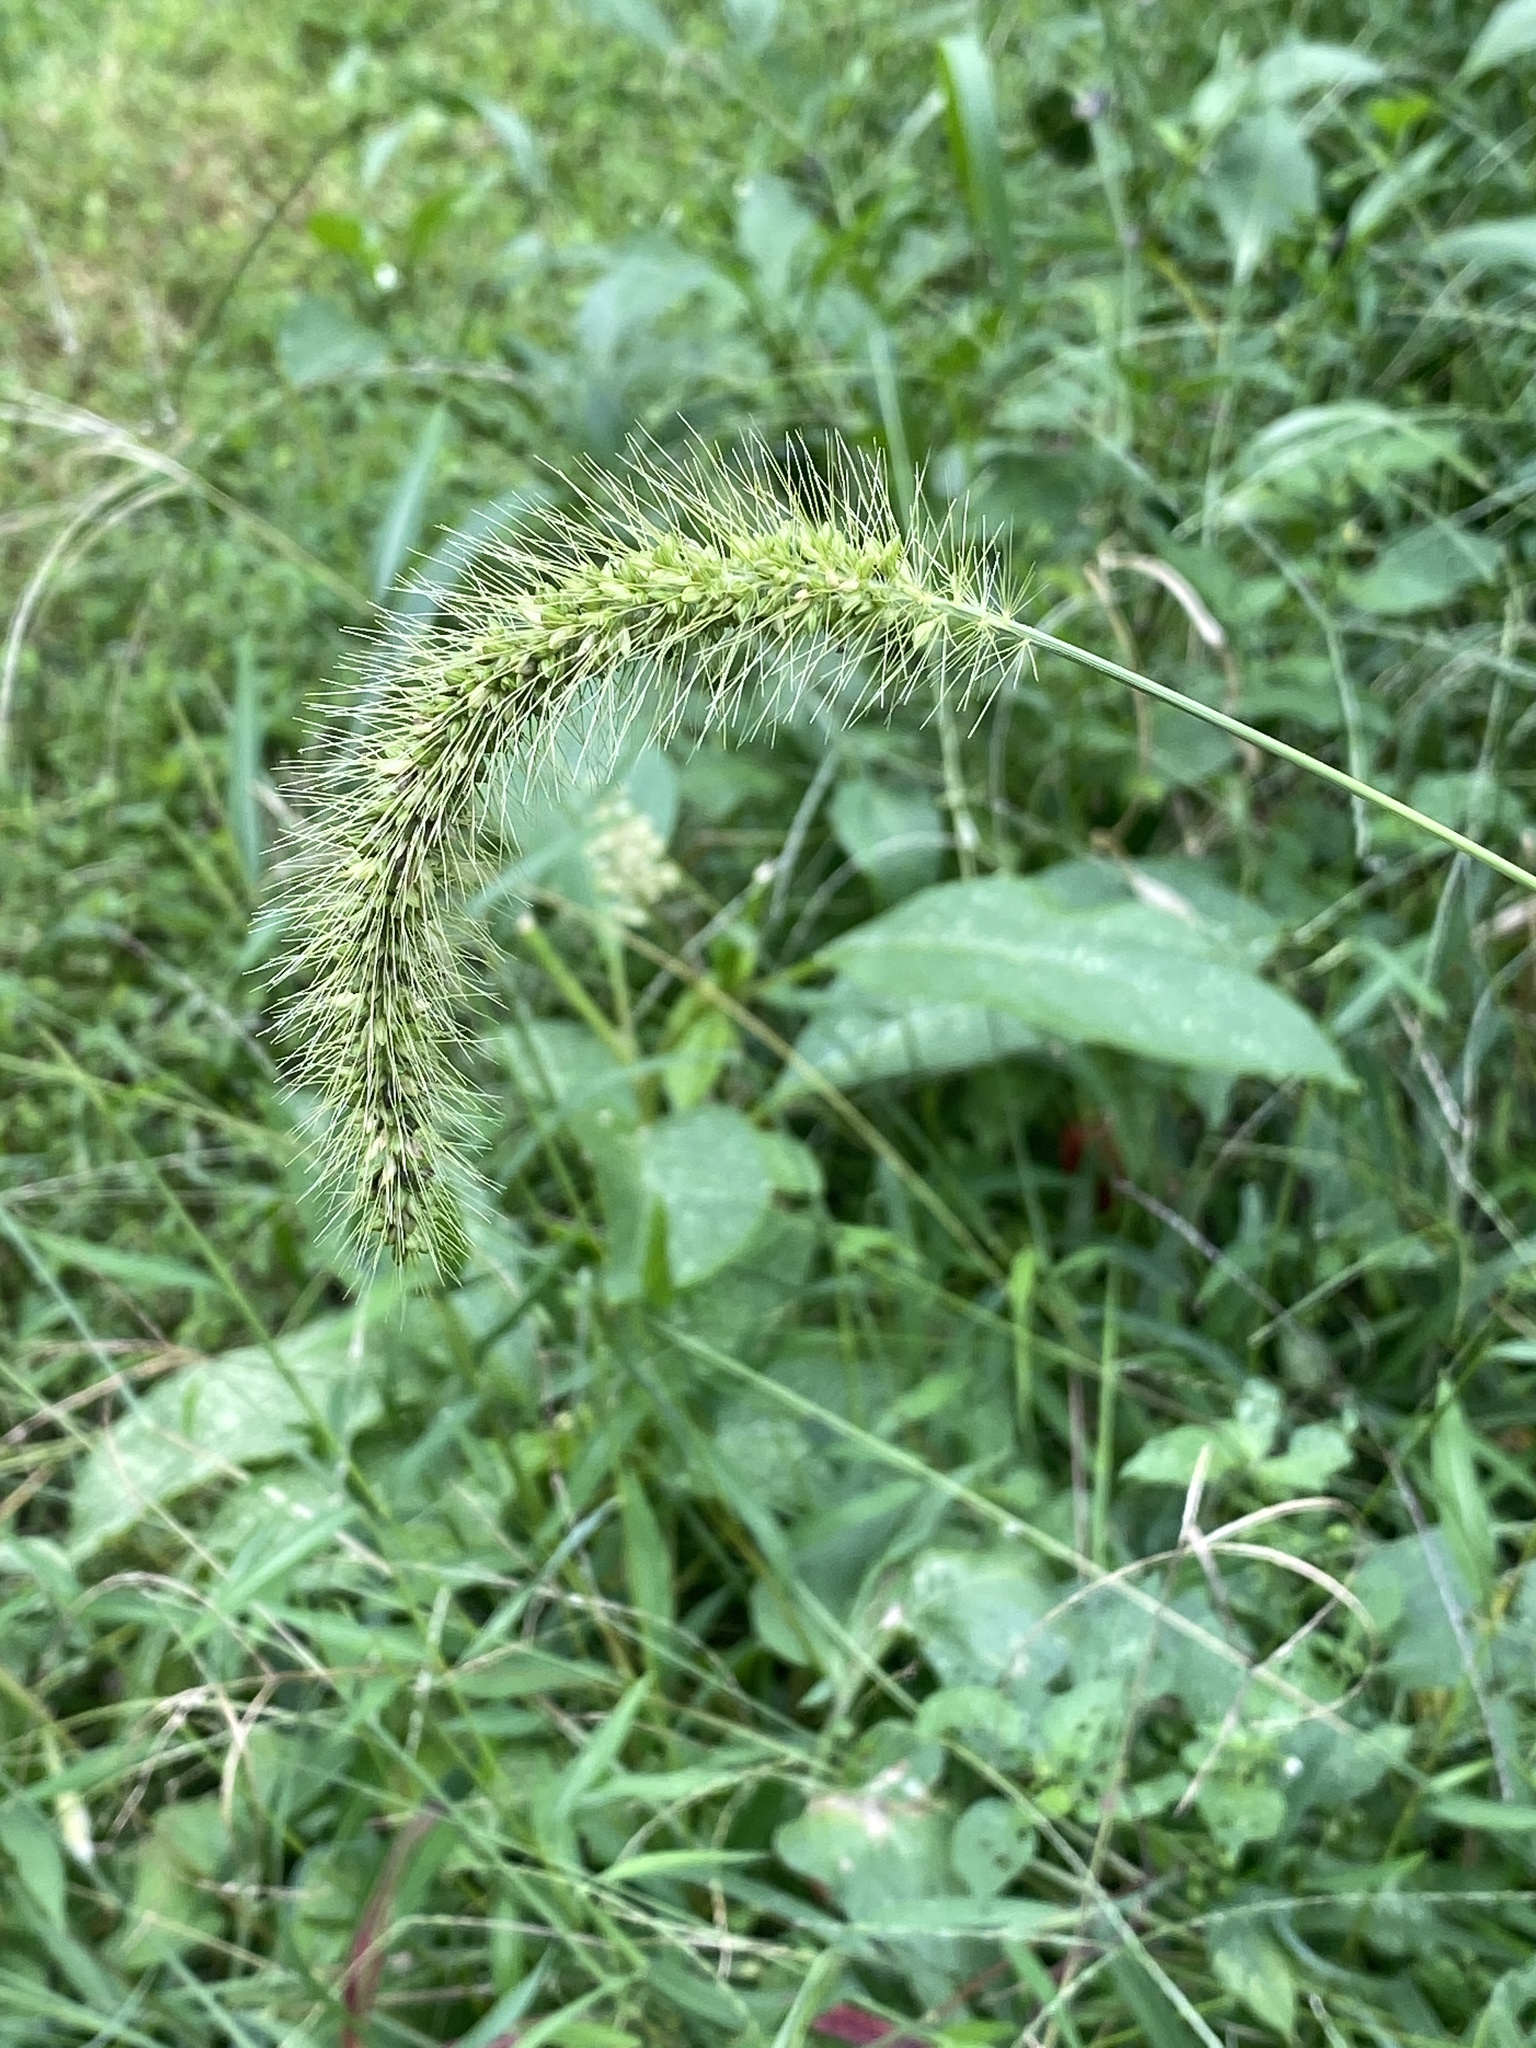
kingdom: Plantae
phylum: Tracheophyta
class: Liliopsida
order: Poales
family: Poaceae
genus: Setaria
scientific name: Setaria faberi
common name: Nodding bristle-grass
